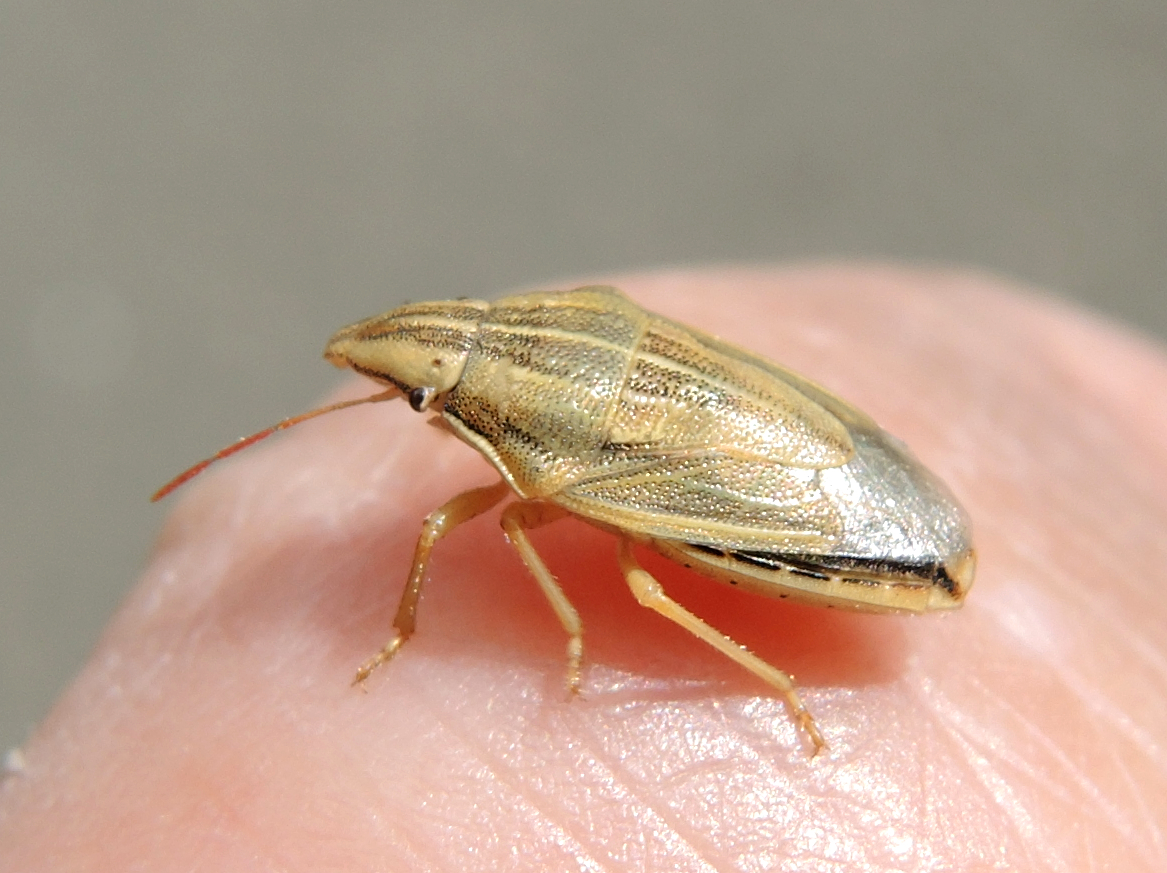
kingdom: Animalia
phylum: Arthropoda
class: Insecta
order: Hemiptera
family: Pentatomidae
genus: Aelia
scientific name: Aelia acuminata
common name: Bishop's mitre
